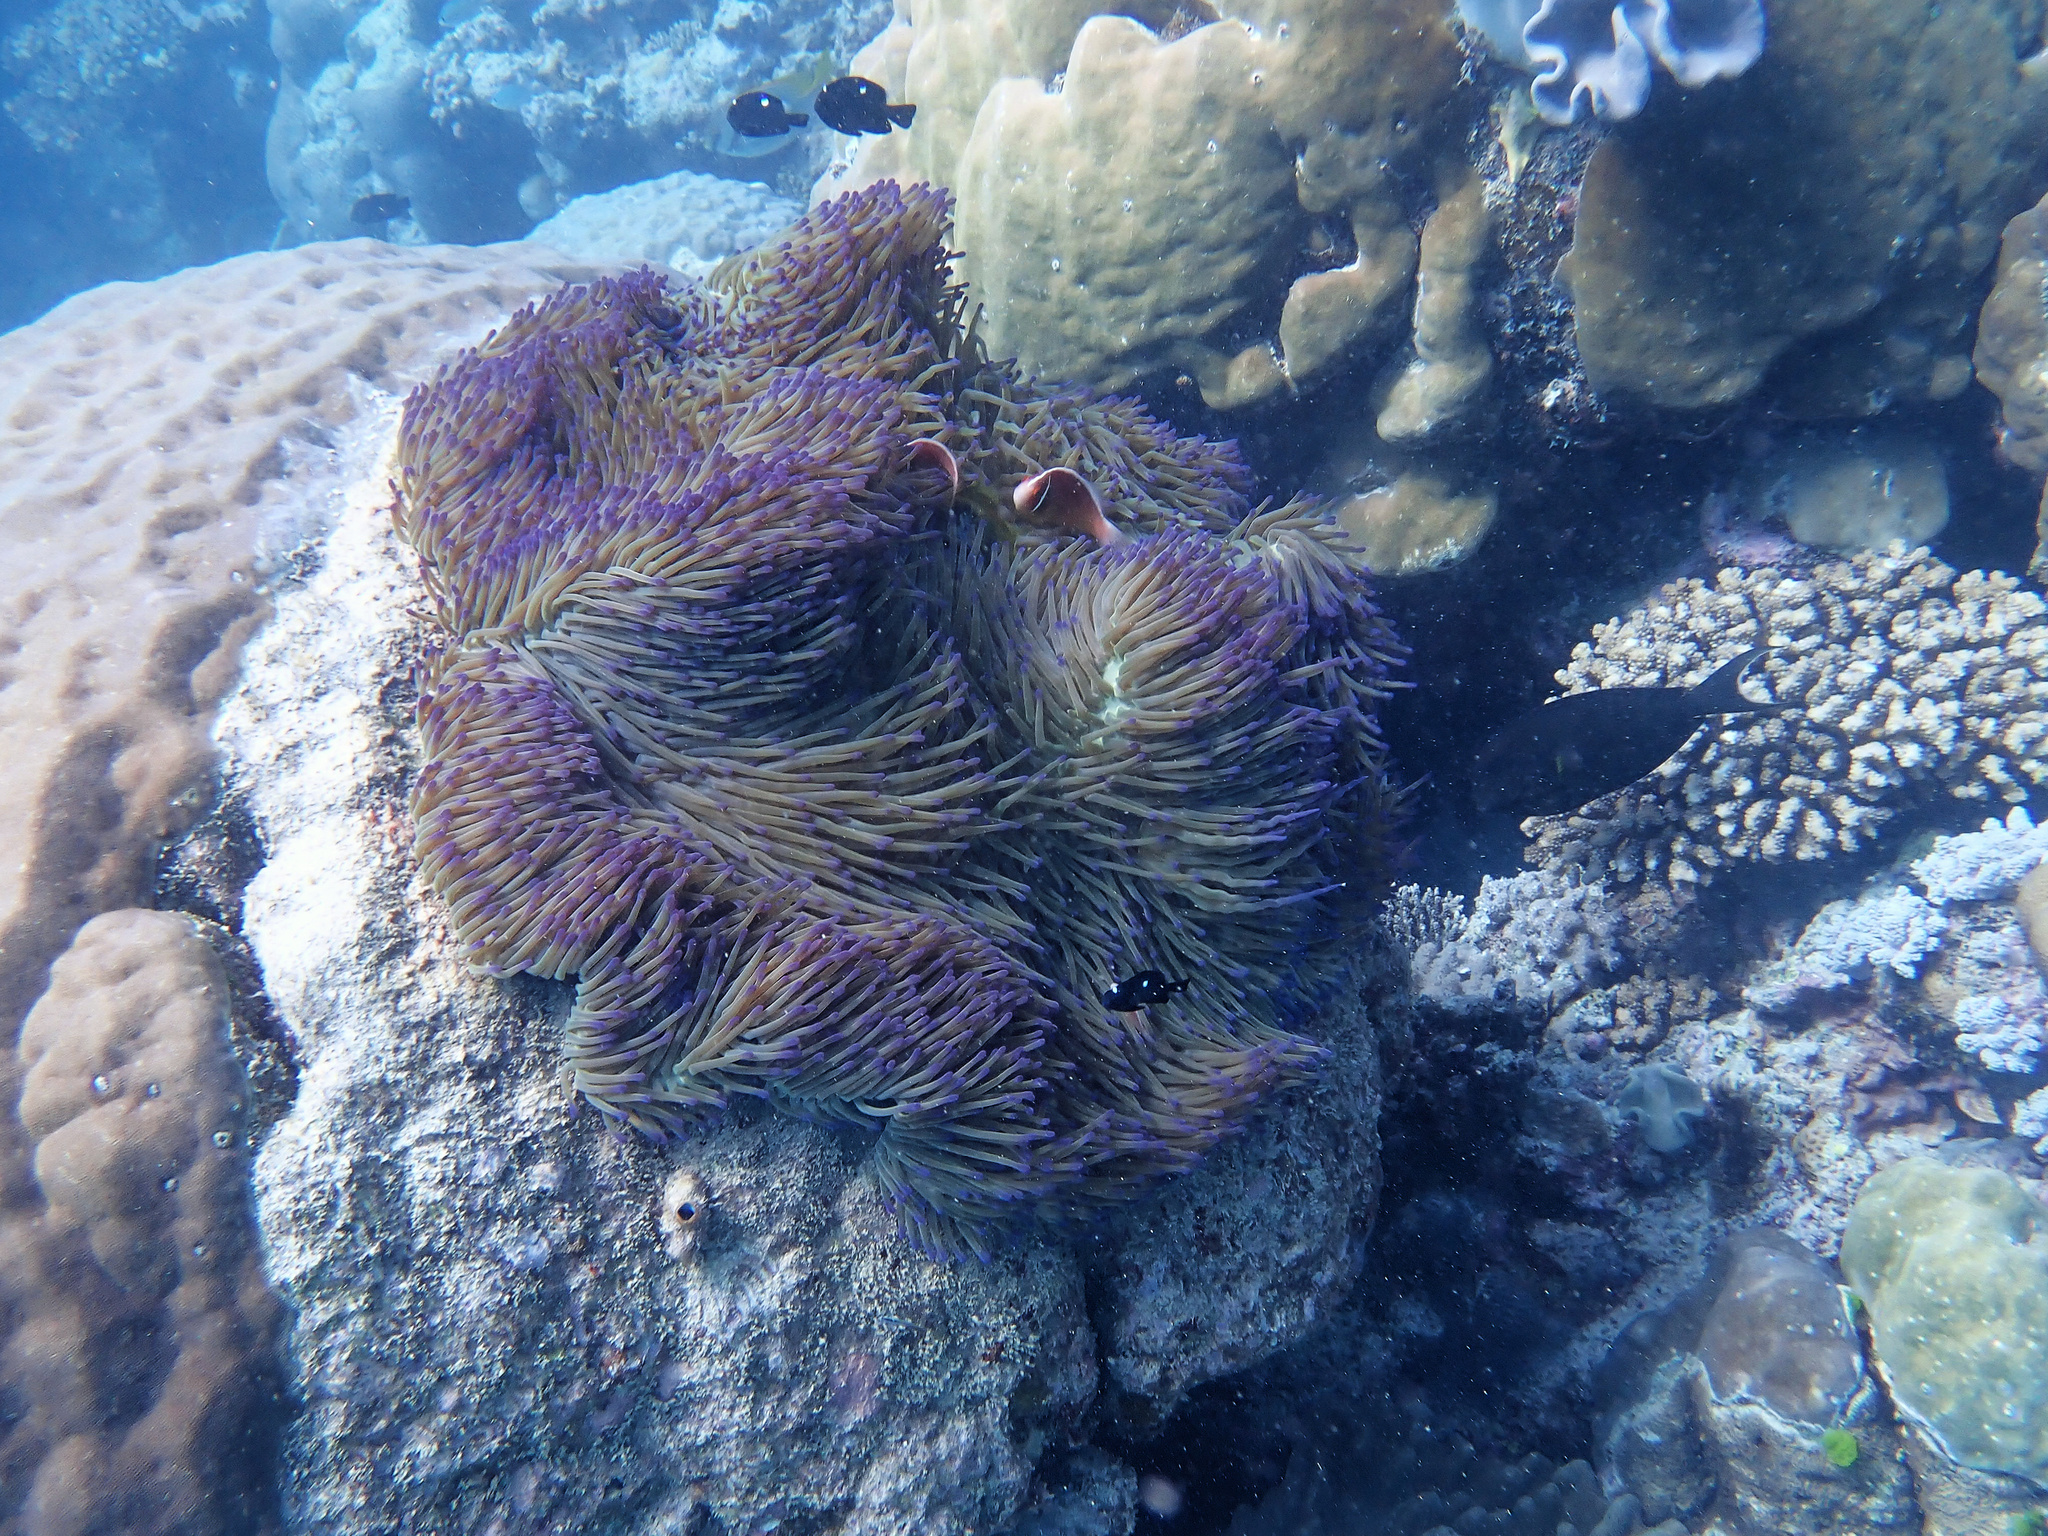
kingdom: Animalia
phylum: Cnidaria
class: Anthozoa
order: Actiniaria
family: Stichodactylidae
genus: Radianthus
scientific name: Radianthus magnifica
